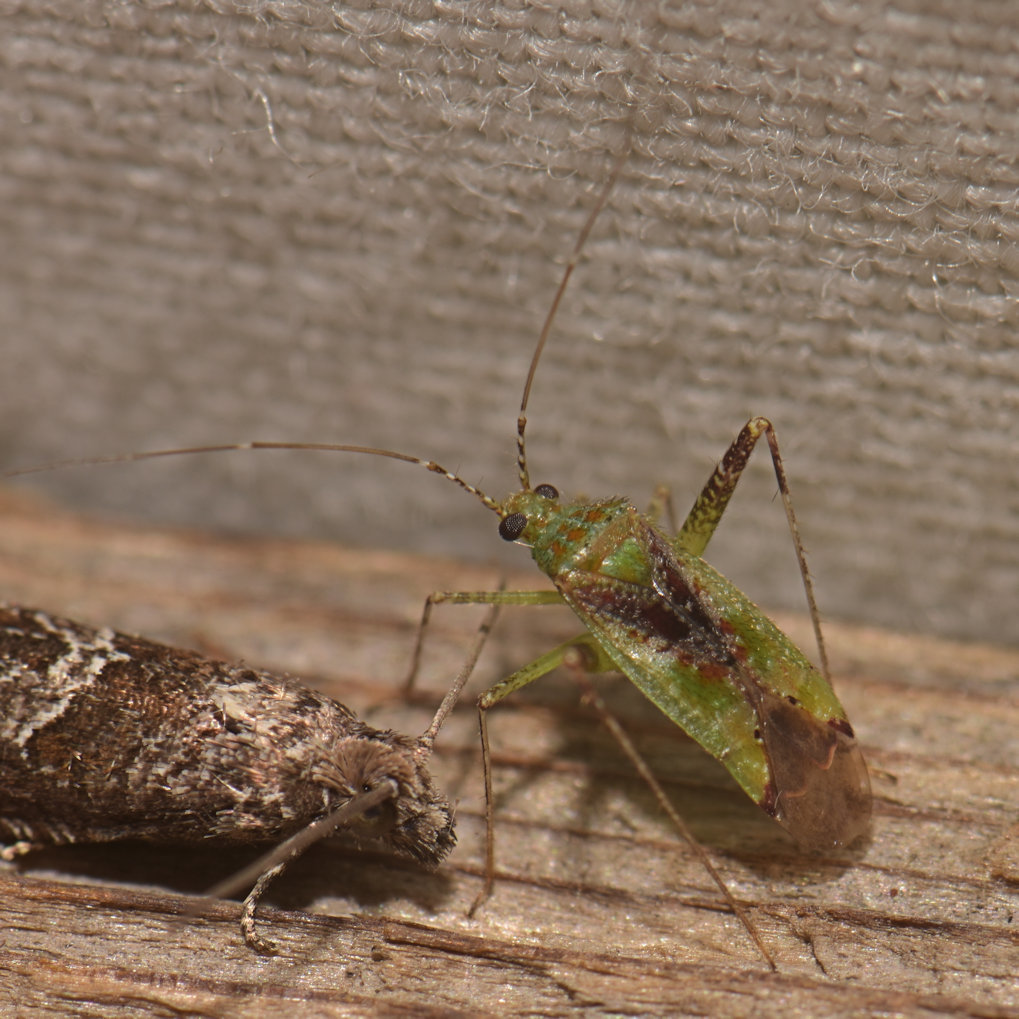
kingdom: Animalia
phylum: Arthropoda
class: Insecta
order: Hemiptera
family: Miridae
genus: Phytocoris
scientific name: Phytocoris tibialis
